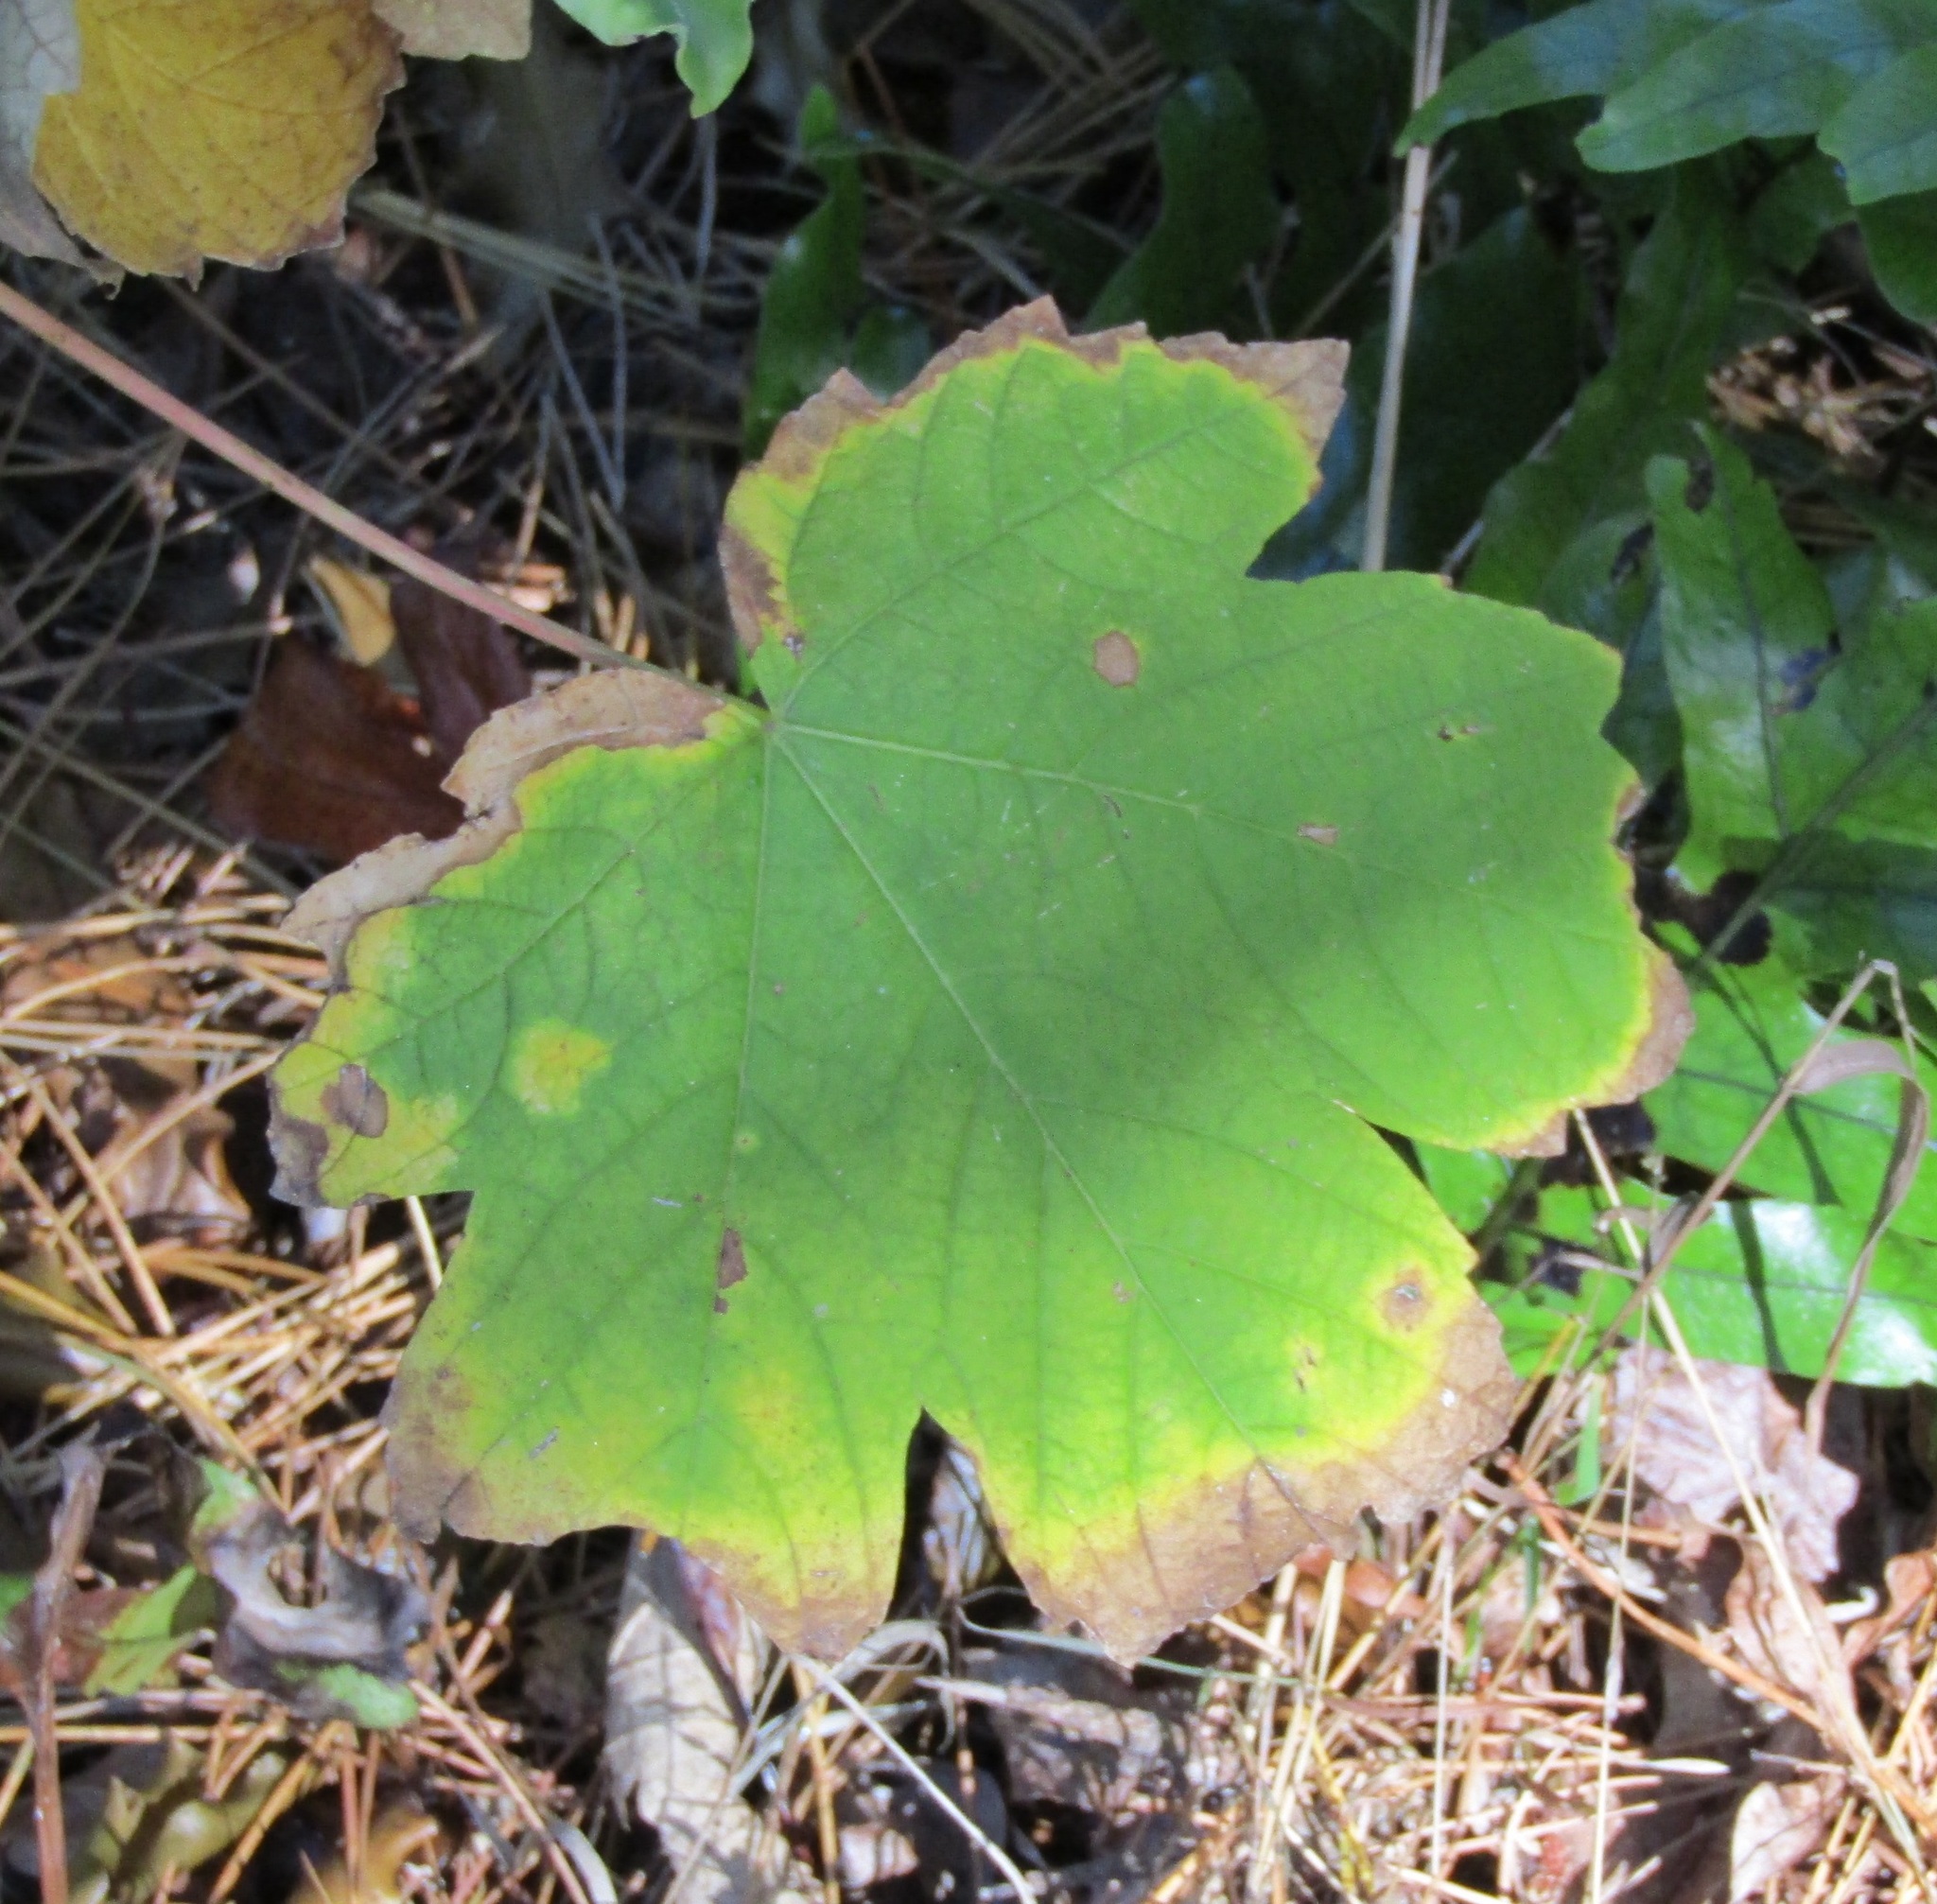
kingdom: Plantae
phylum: Tracheophyta
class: Magnoliopsida
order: Sapindales
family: Sapindaceae
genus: Acer
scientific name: Acer pseudoplatanus
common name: Sycamore
